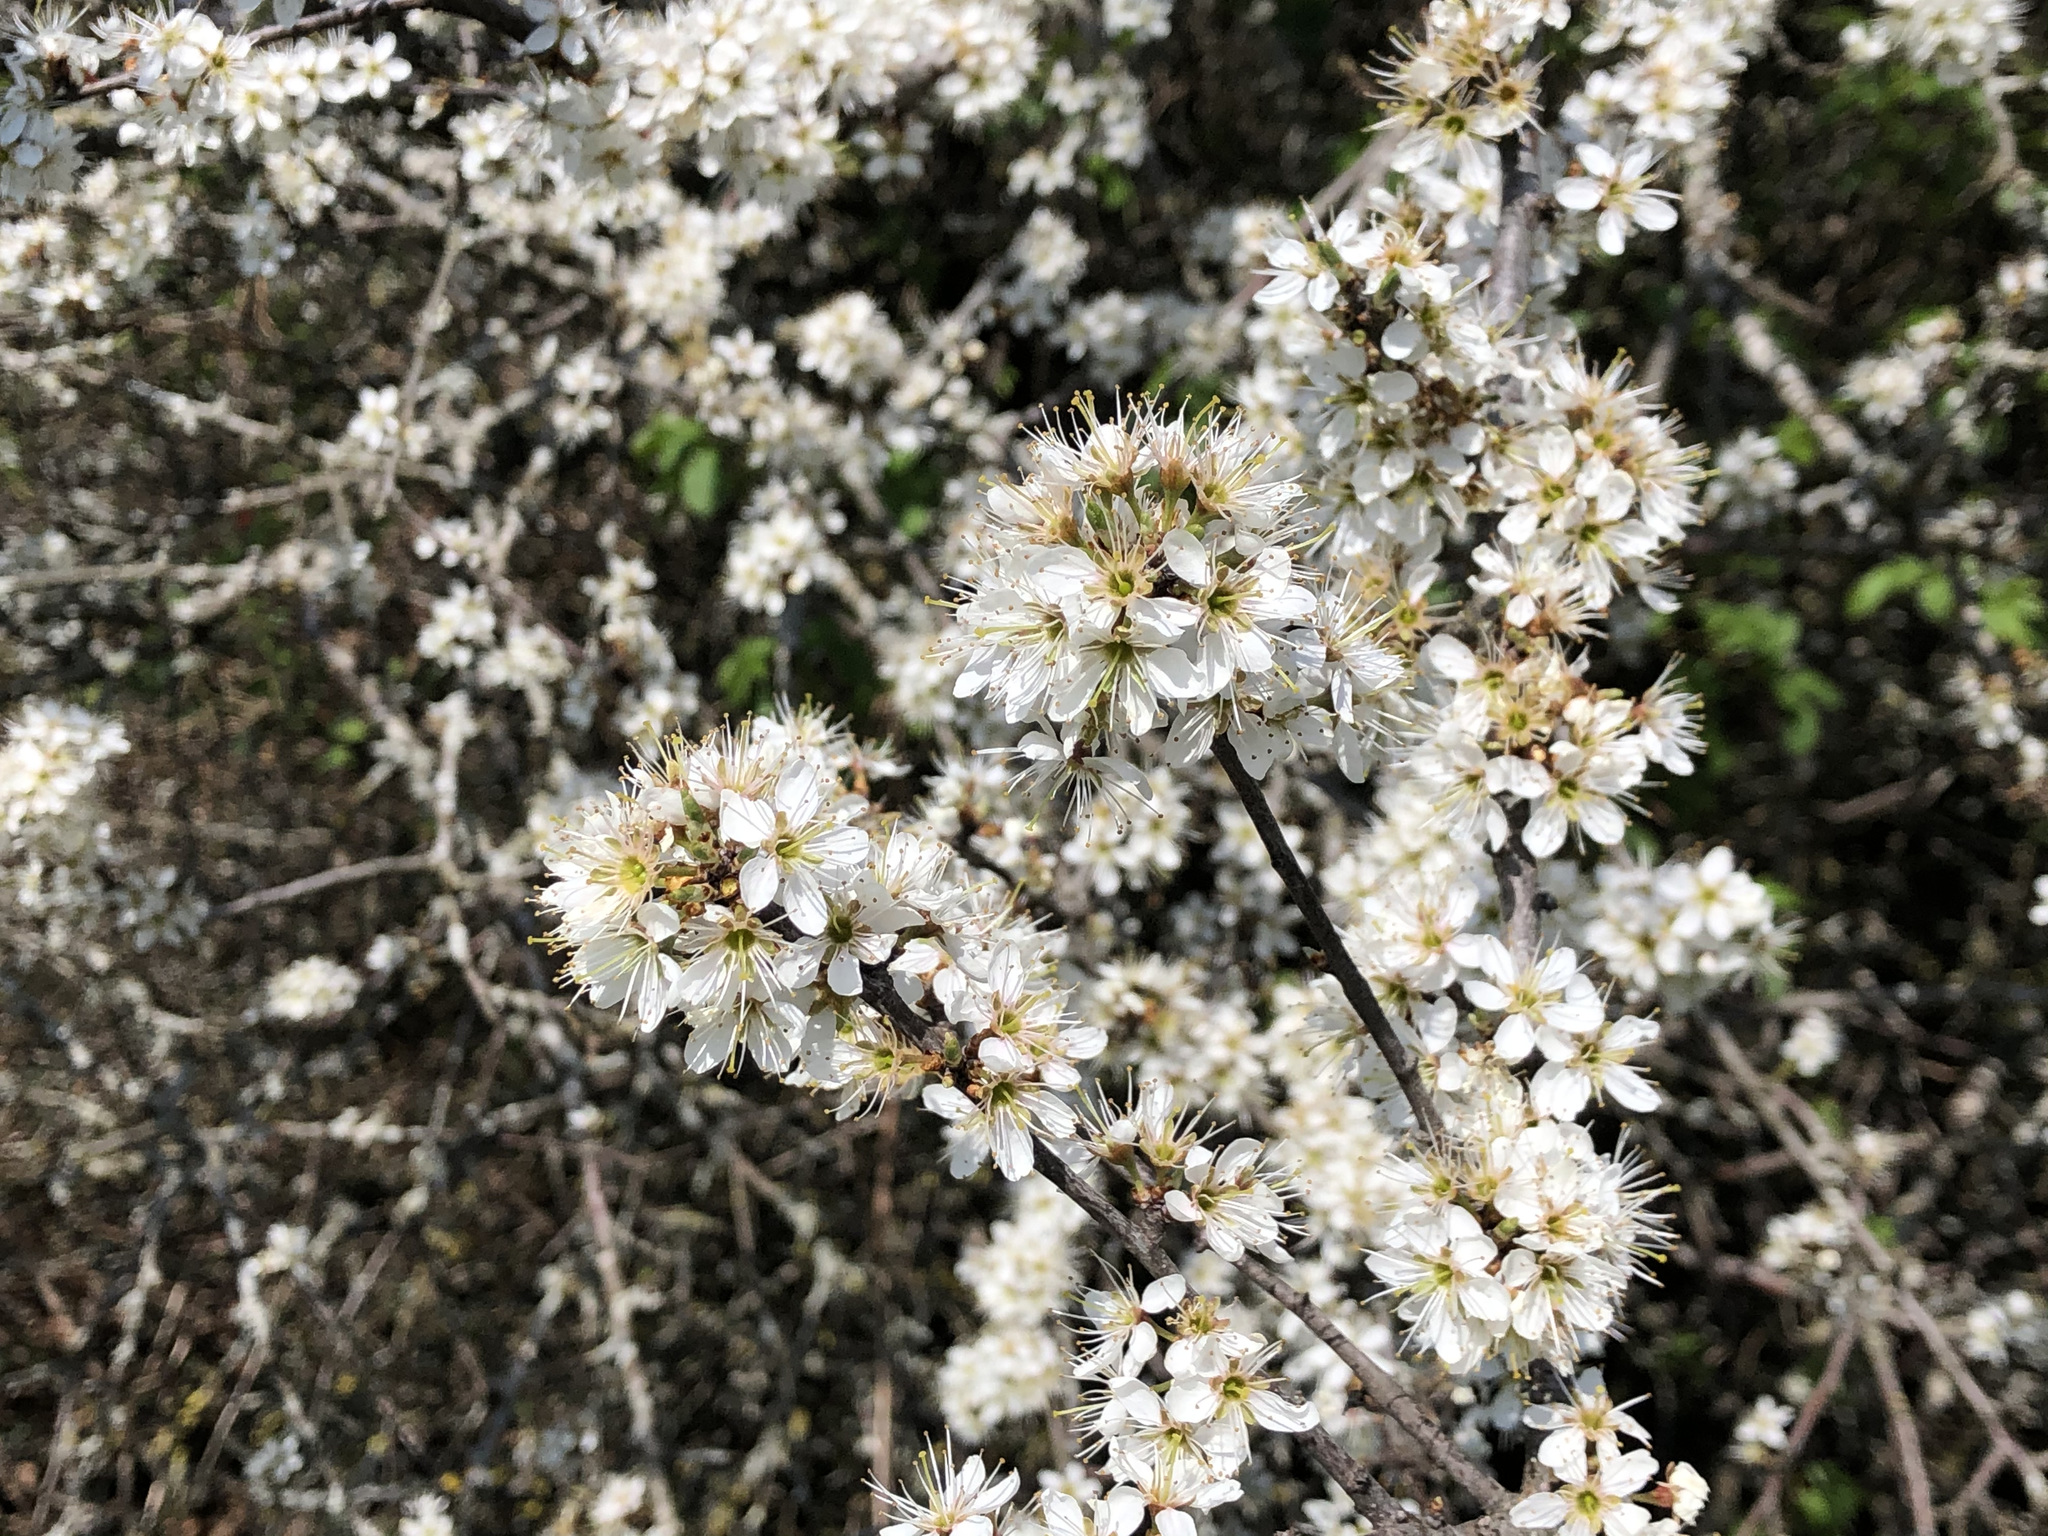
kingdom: Plantae
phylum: Tracheophyta
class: Magnoliopsida
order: Rosales
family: Rosaceae
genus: Prunus
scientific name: Prunus spinosa
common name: Blackthorn
